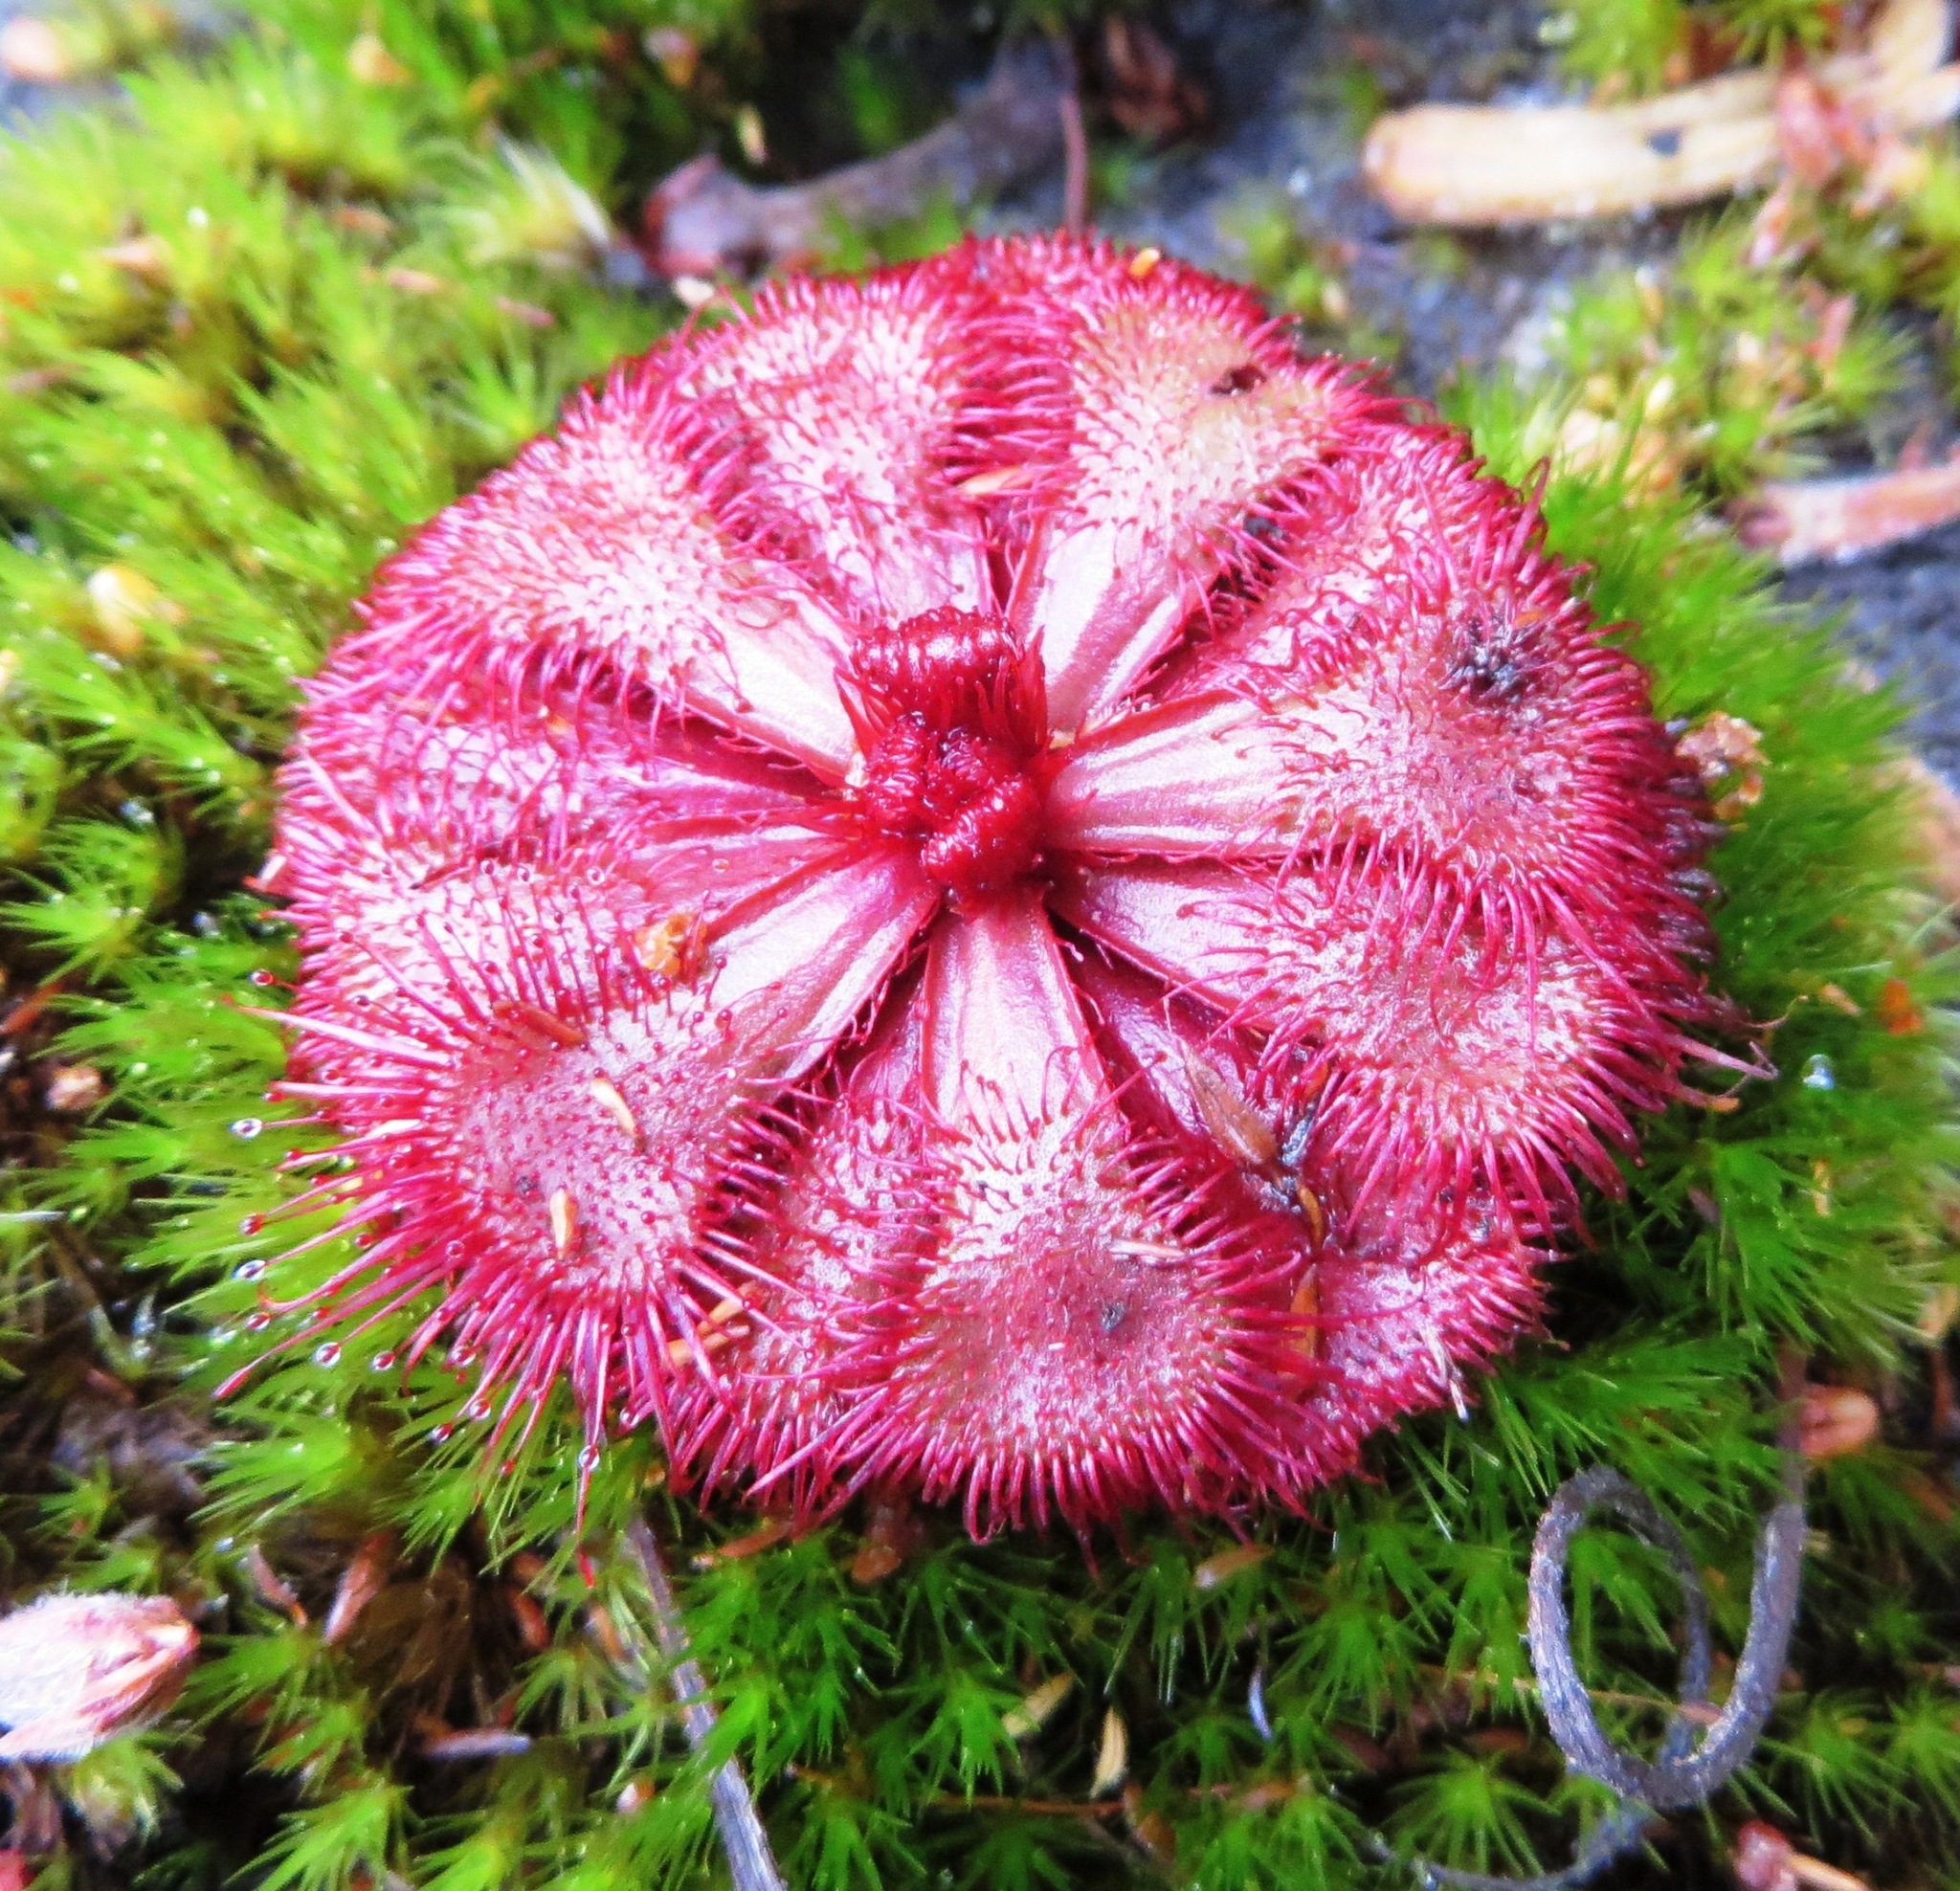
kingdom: Plantae
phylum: Tracheophyta
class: Magnoliopsida
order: Caryophyllales
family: Droseraceae
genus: Drosera
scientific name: Drosera slackii
